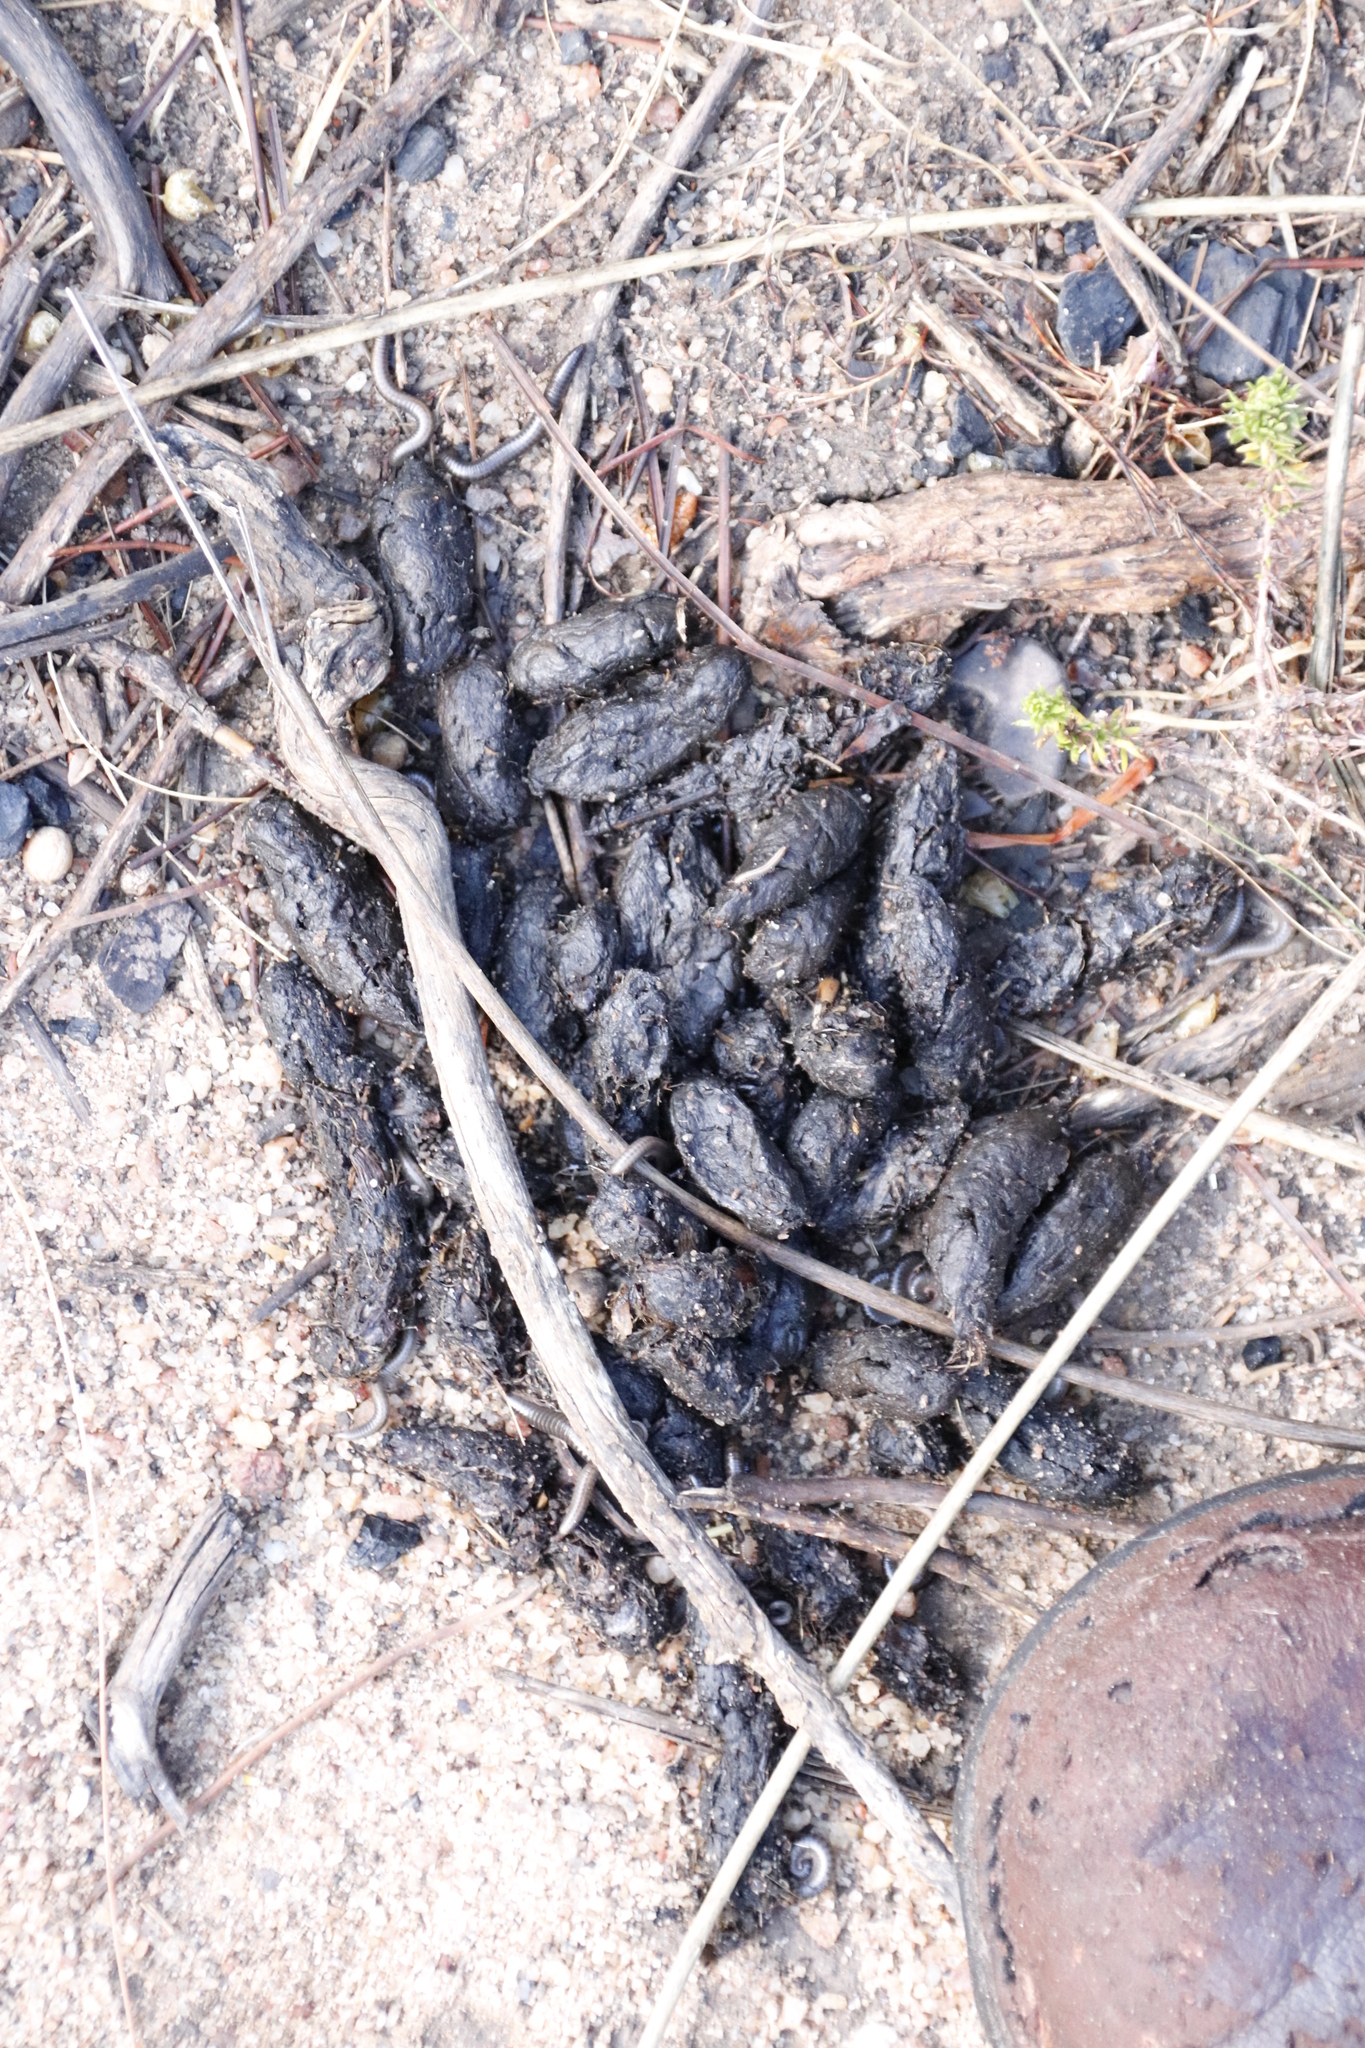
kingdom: Animalia
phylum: Chordata
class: Mammalia
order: Rodentia
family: Hystricidae
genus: Hystrix
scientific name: Hystrix africaeaustralis
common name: Cape porcupine
